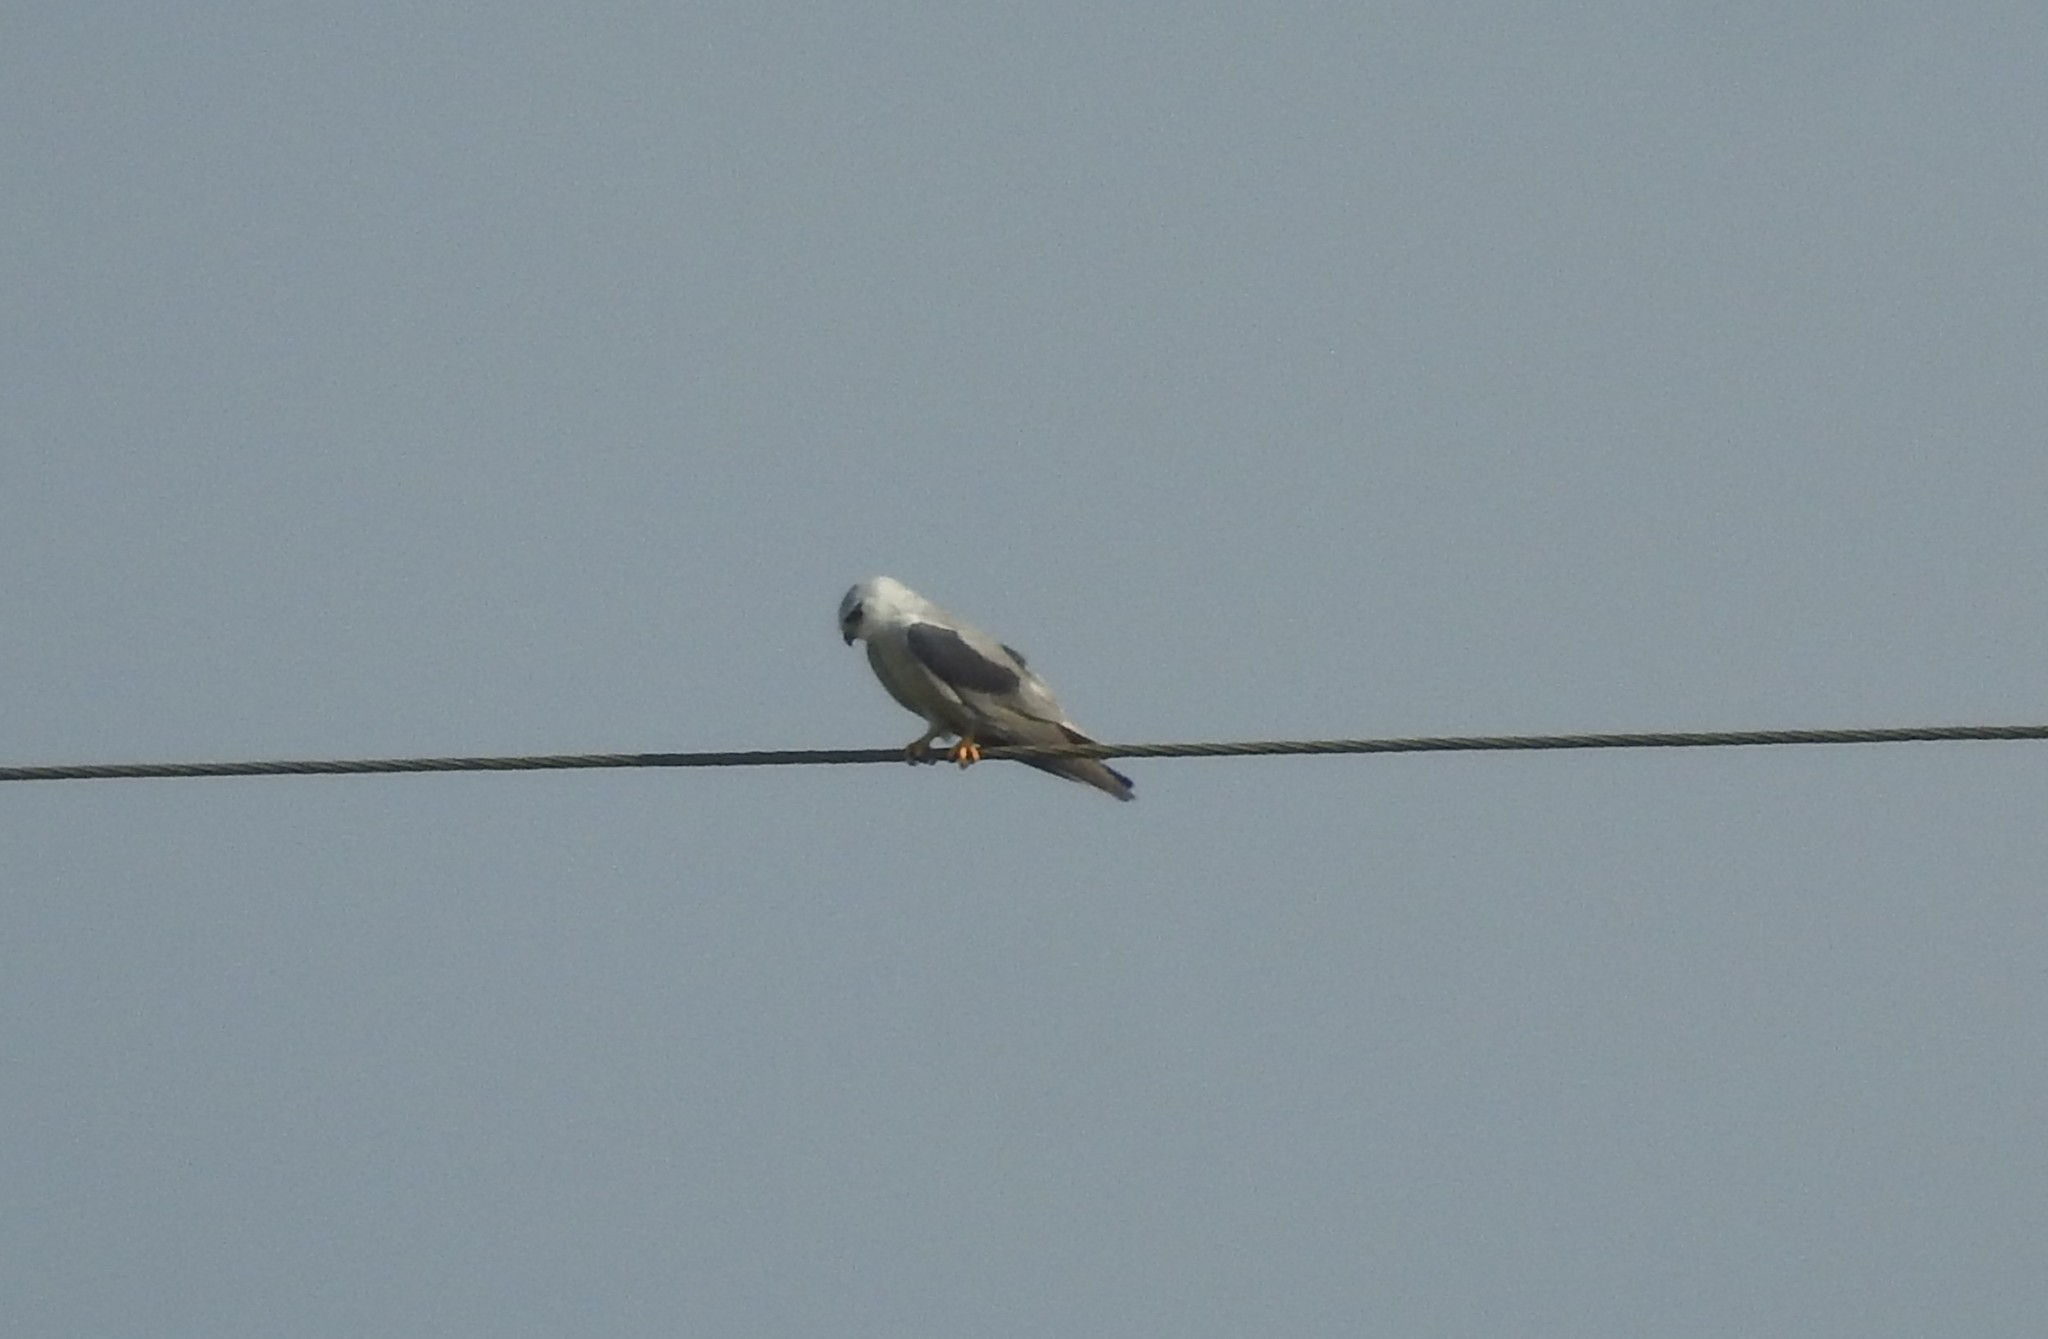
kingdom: Animalia
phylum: Chordata
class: Aves
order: Accipitriformes
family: Accipitridae
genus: Elanus
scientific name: Elanus caeruleus
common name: Black-winged kite
